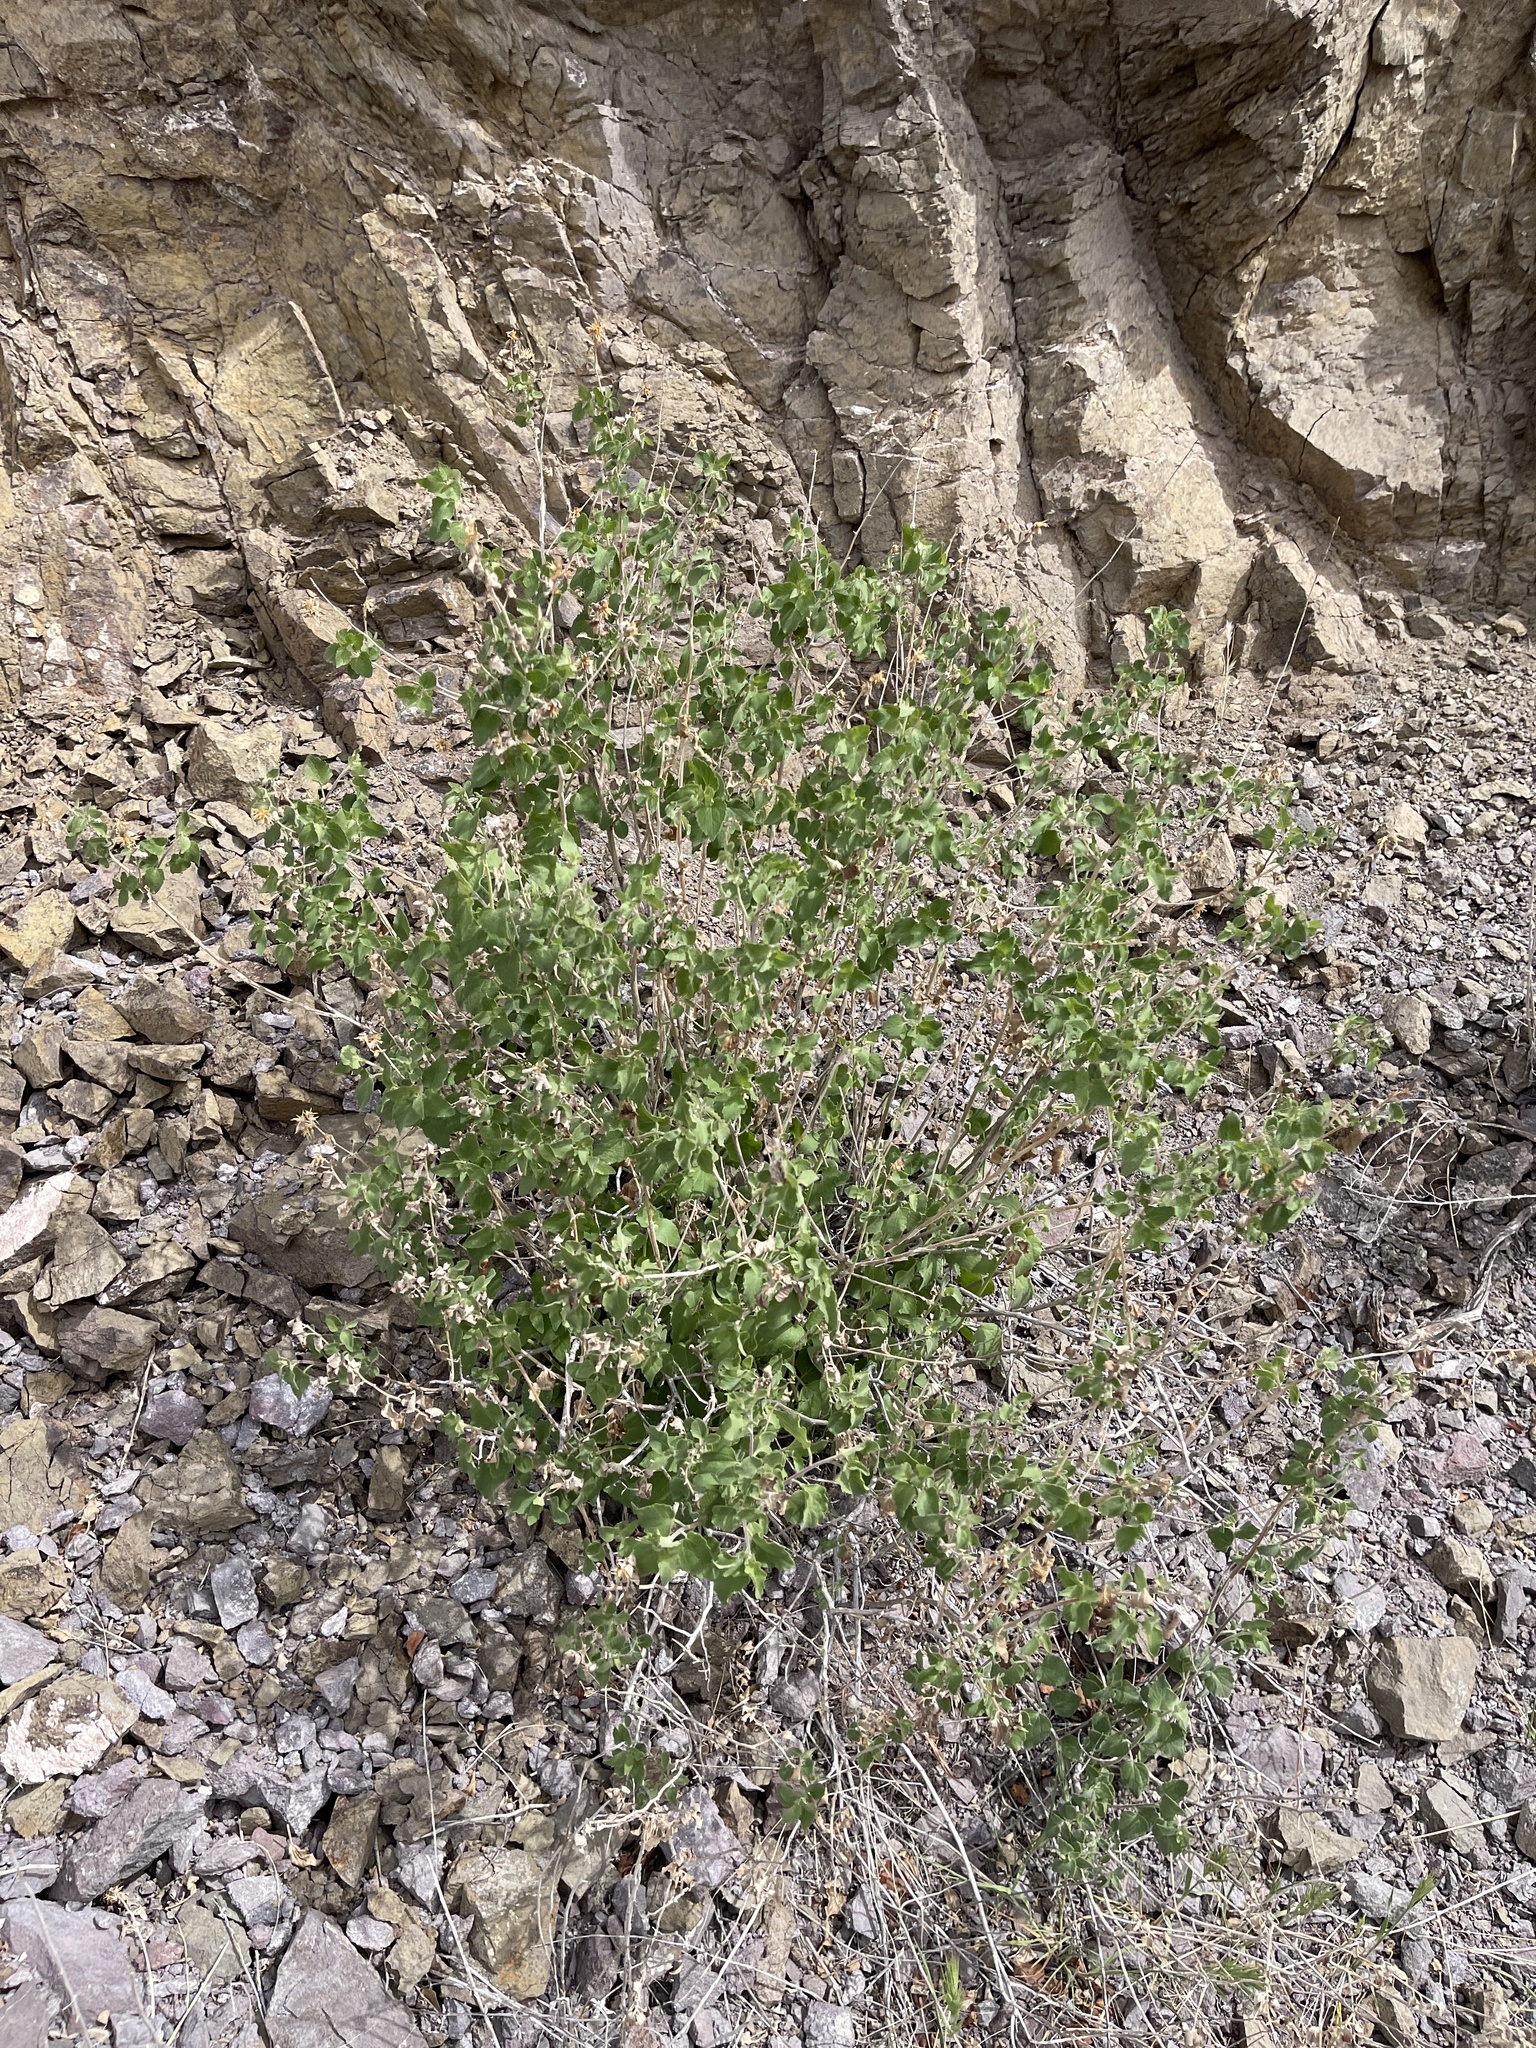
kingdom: Plantae
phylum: Tracheophyta
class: Magnoliopsida
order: Asterales
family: Asteraceae
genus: Brickellia
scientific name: Brickellia californica
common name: California brickellbush
